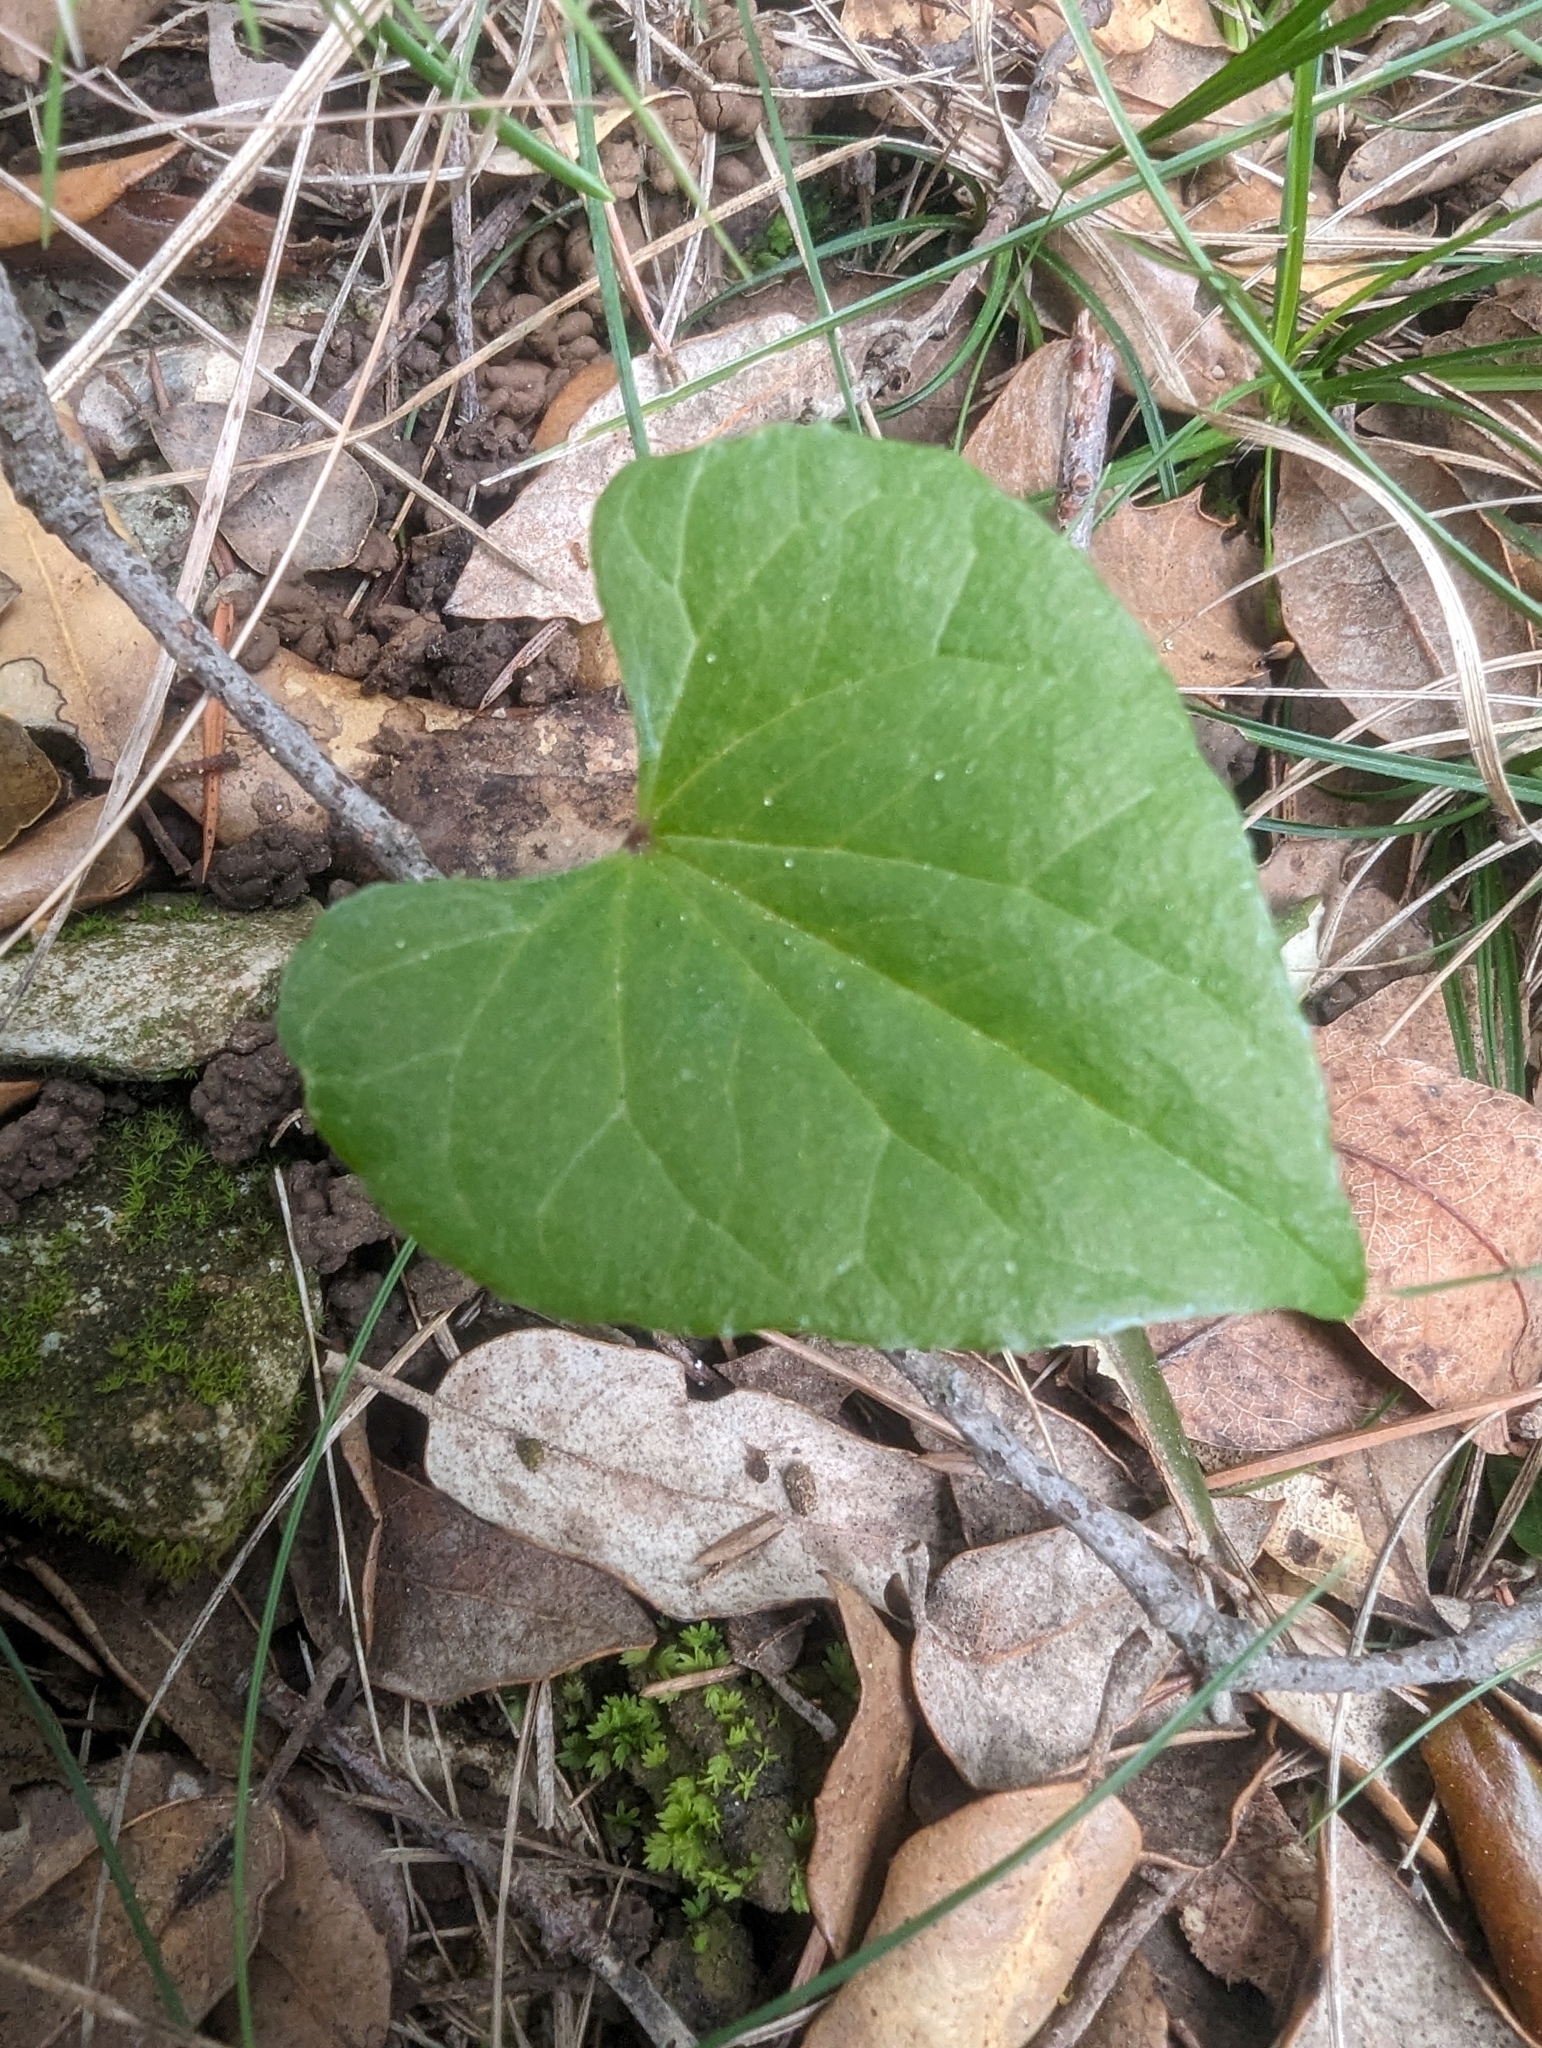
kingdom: Plantae
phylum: Tracheophyta
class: Liliopsida
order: Dioscoreales
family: Dioscoreaceae
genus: Dioscorea
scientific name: Dioscorea communis
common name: Black-bindweed
